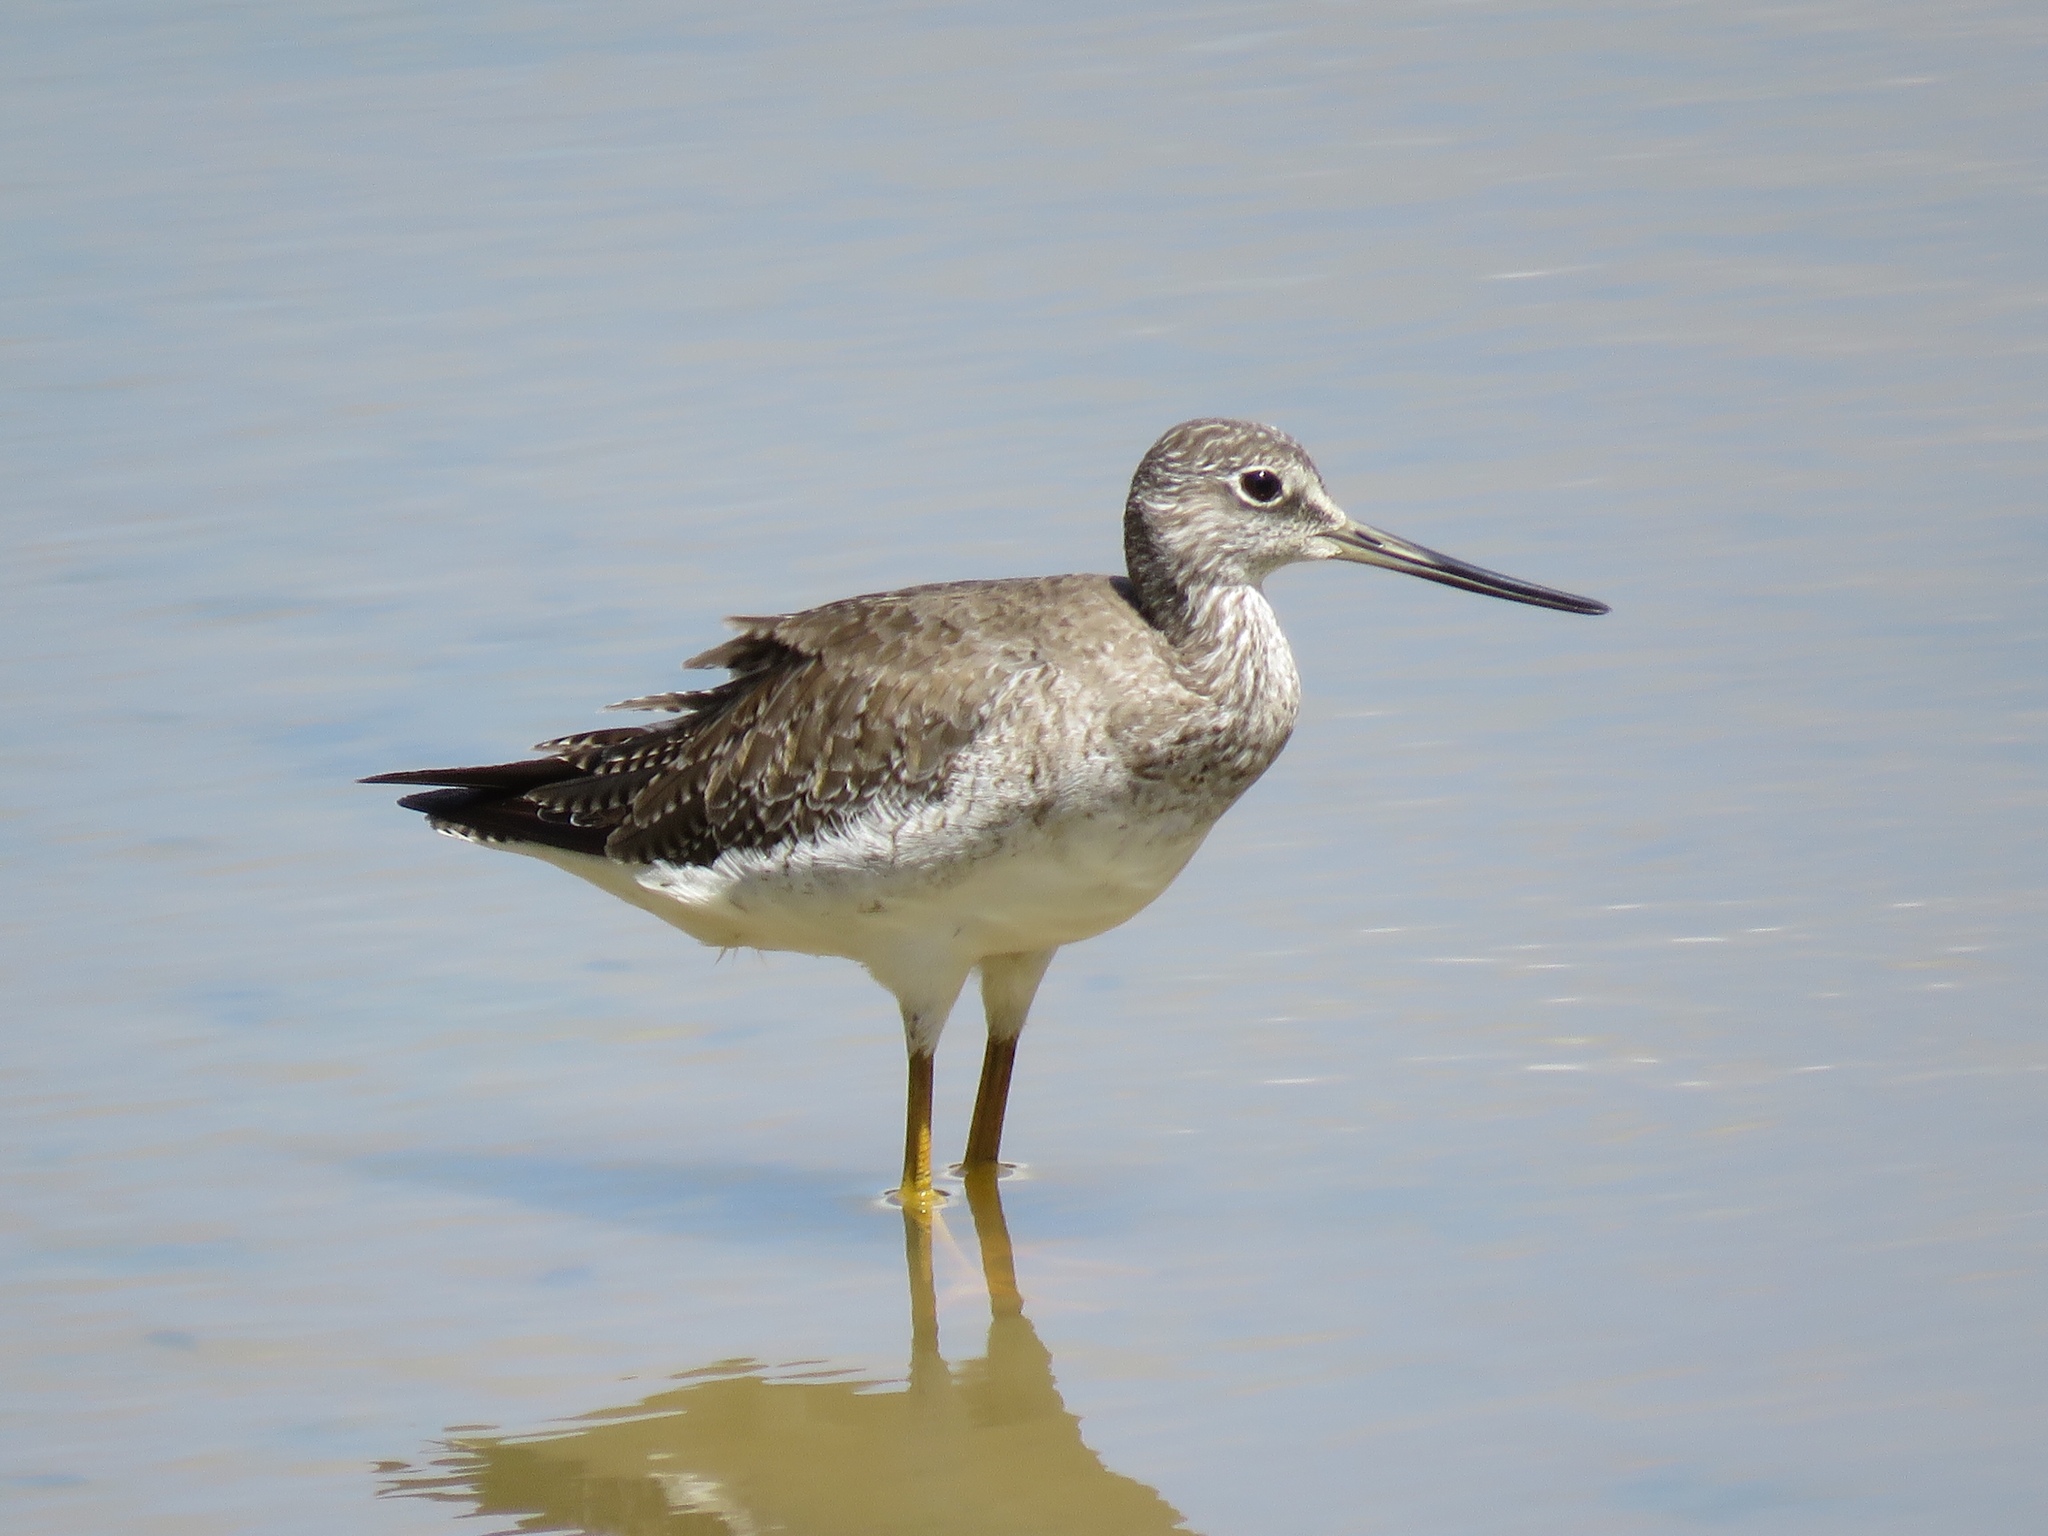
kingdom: Animalia
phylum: Chordata
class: Aves
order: Charadriiformes
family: Scolopacidae
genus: Tringa
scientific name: Tringa melanoleuca
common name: Greater yellowlegs
